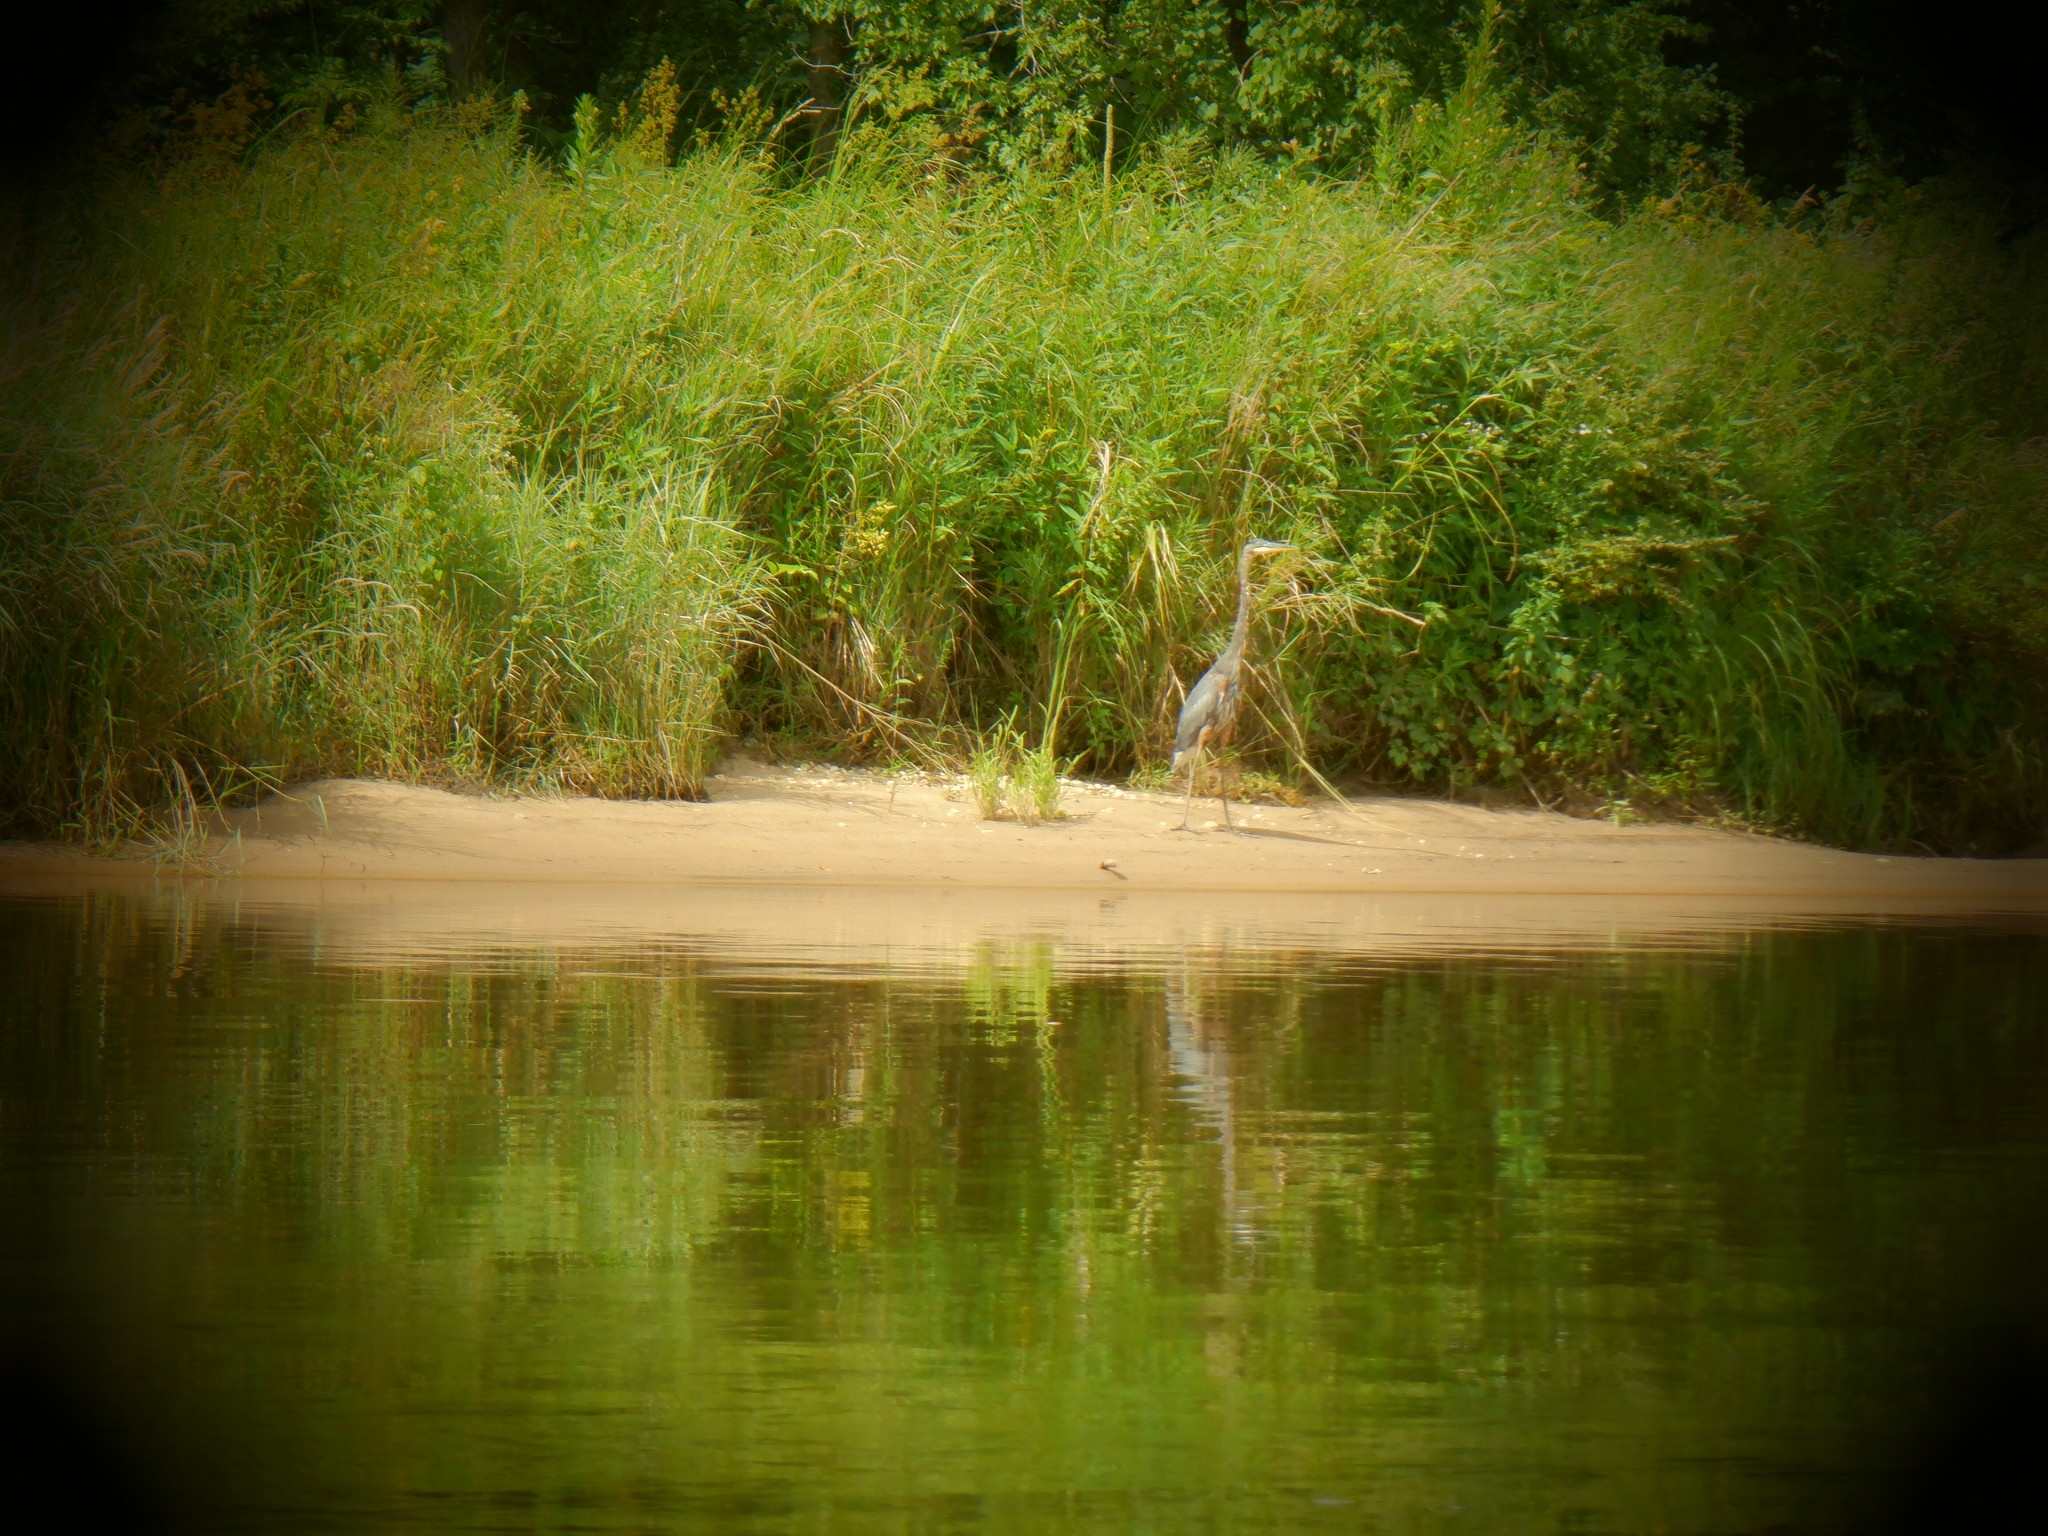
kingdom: Animalia
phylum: Chordata
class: Aves
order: Pelecaniformes
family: Ardeidae
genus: Ardea
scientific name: Ardea herodias
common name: Great blue heron
